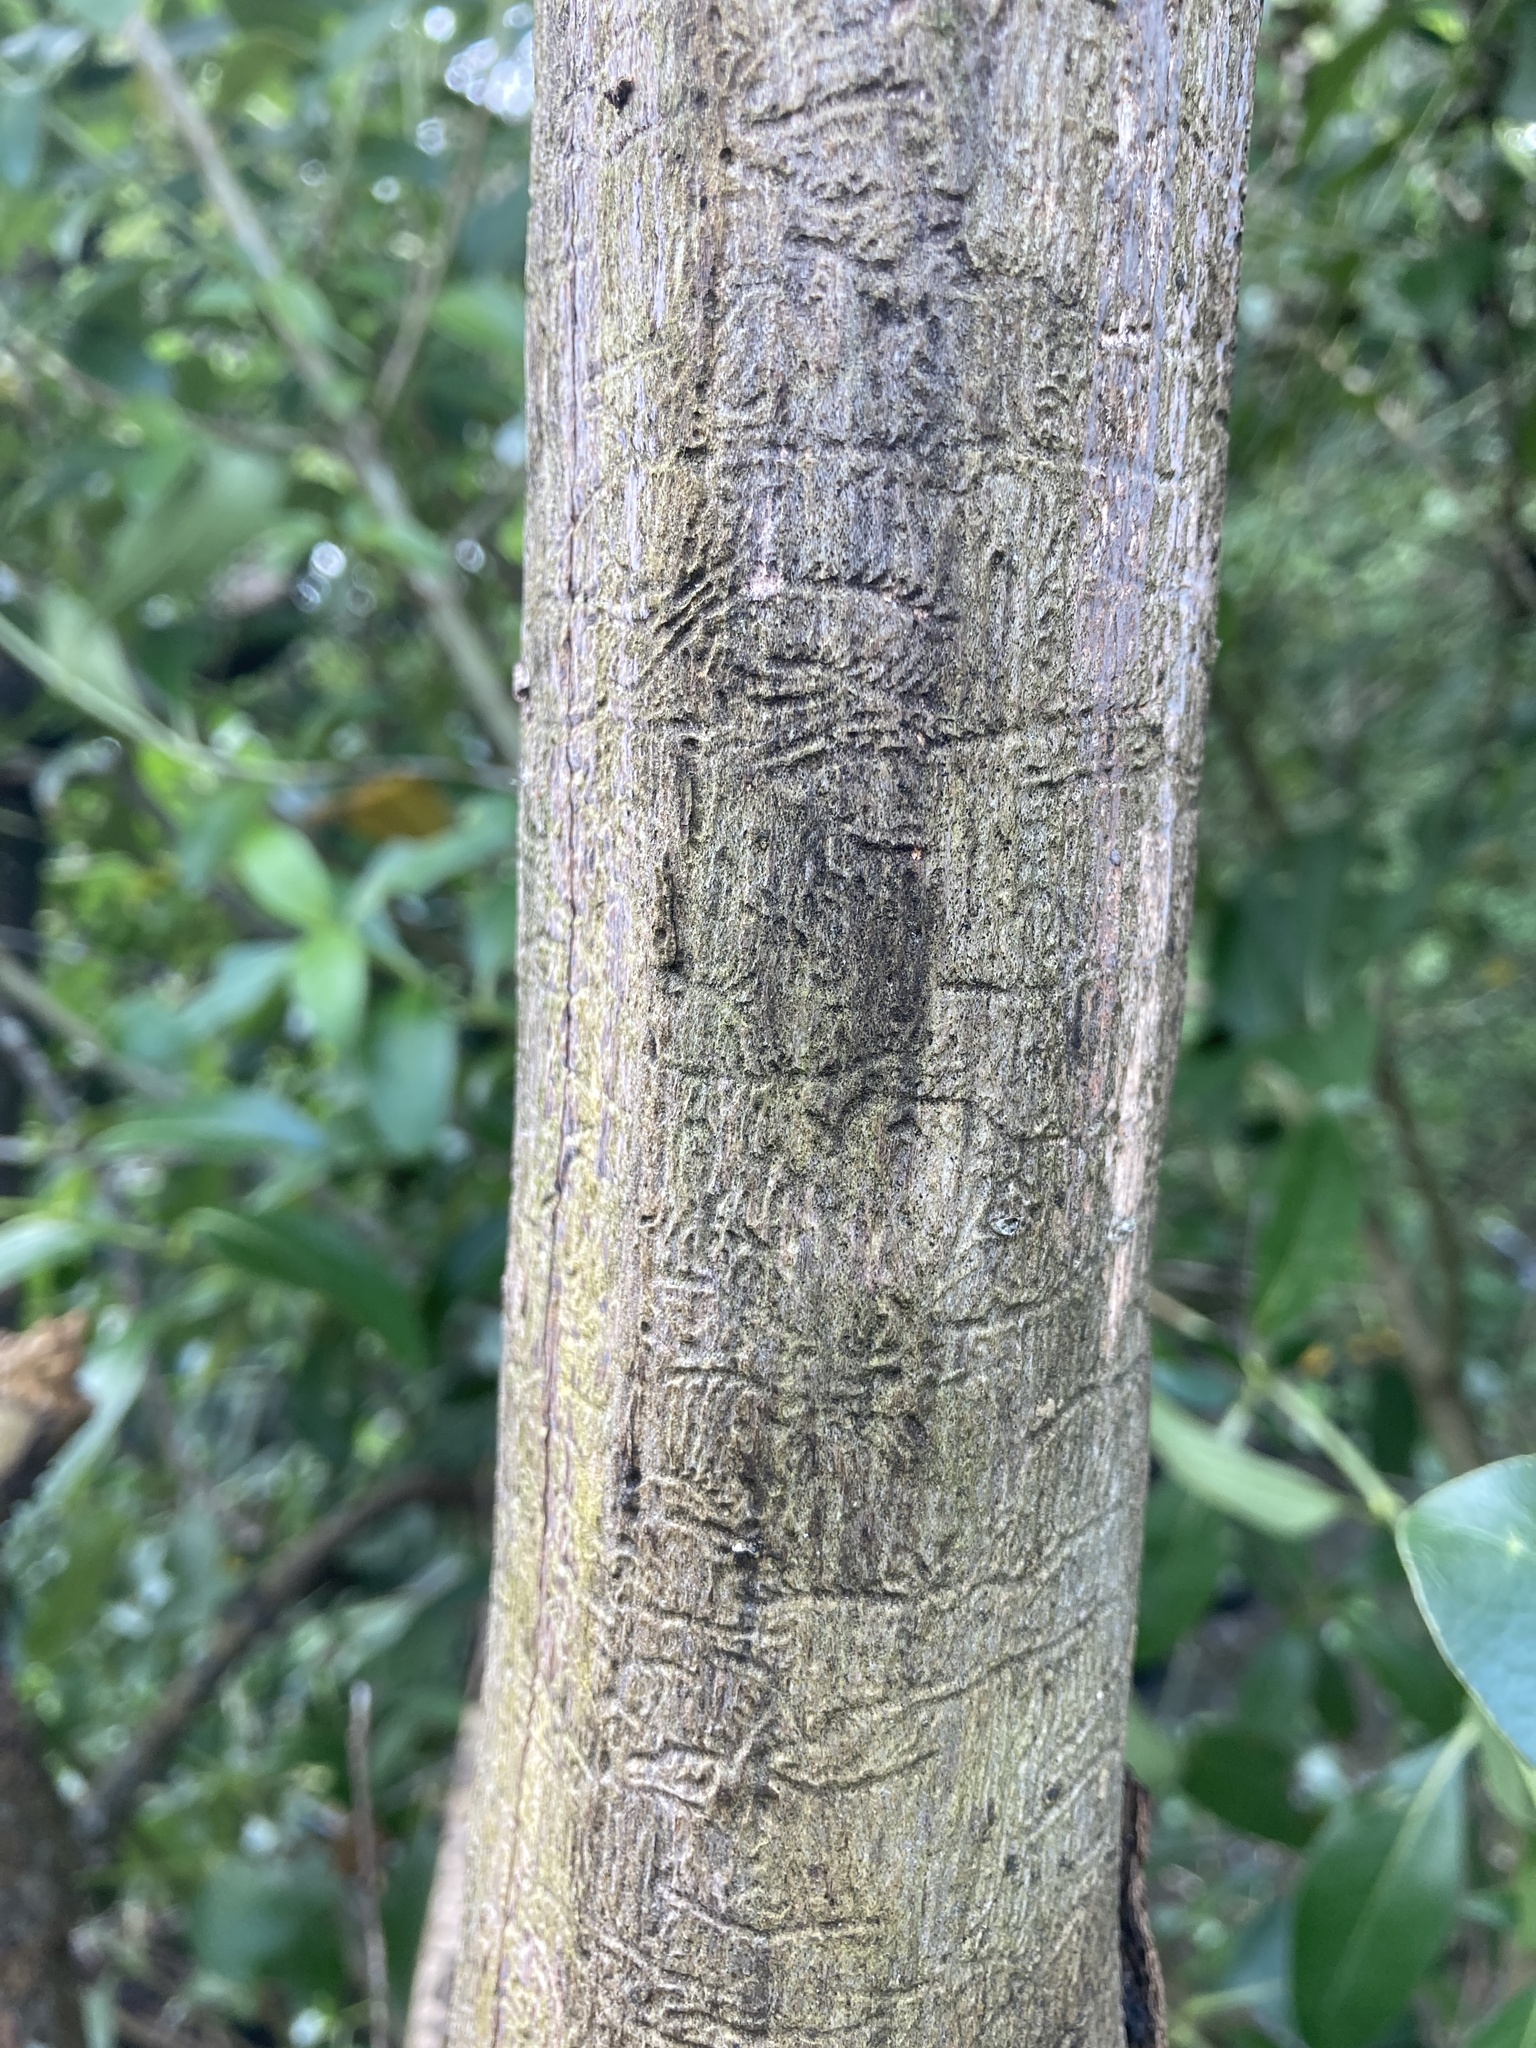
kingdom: Animalia
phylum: Arthropoda
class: Insecta
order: Coleoptera
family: Curculionidae
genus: Chaetoptelius
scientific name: Chaetoptelius mundulus
